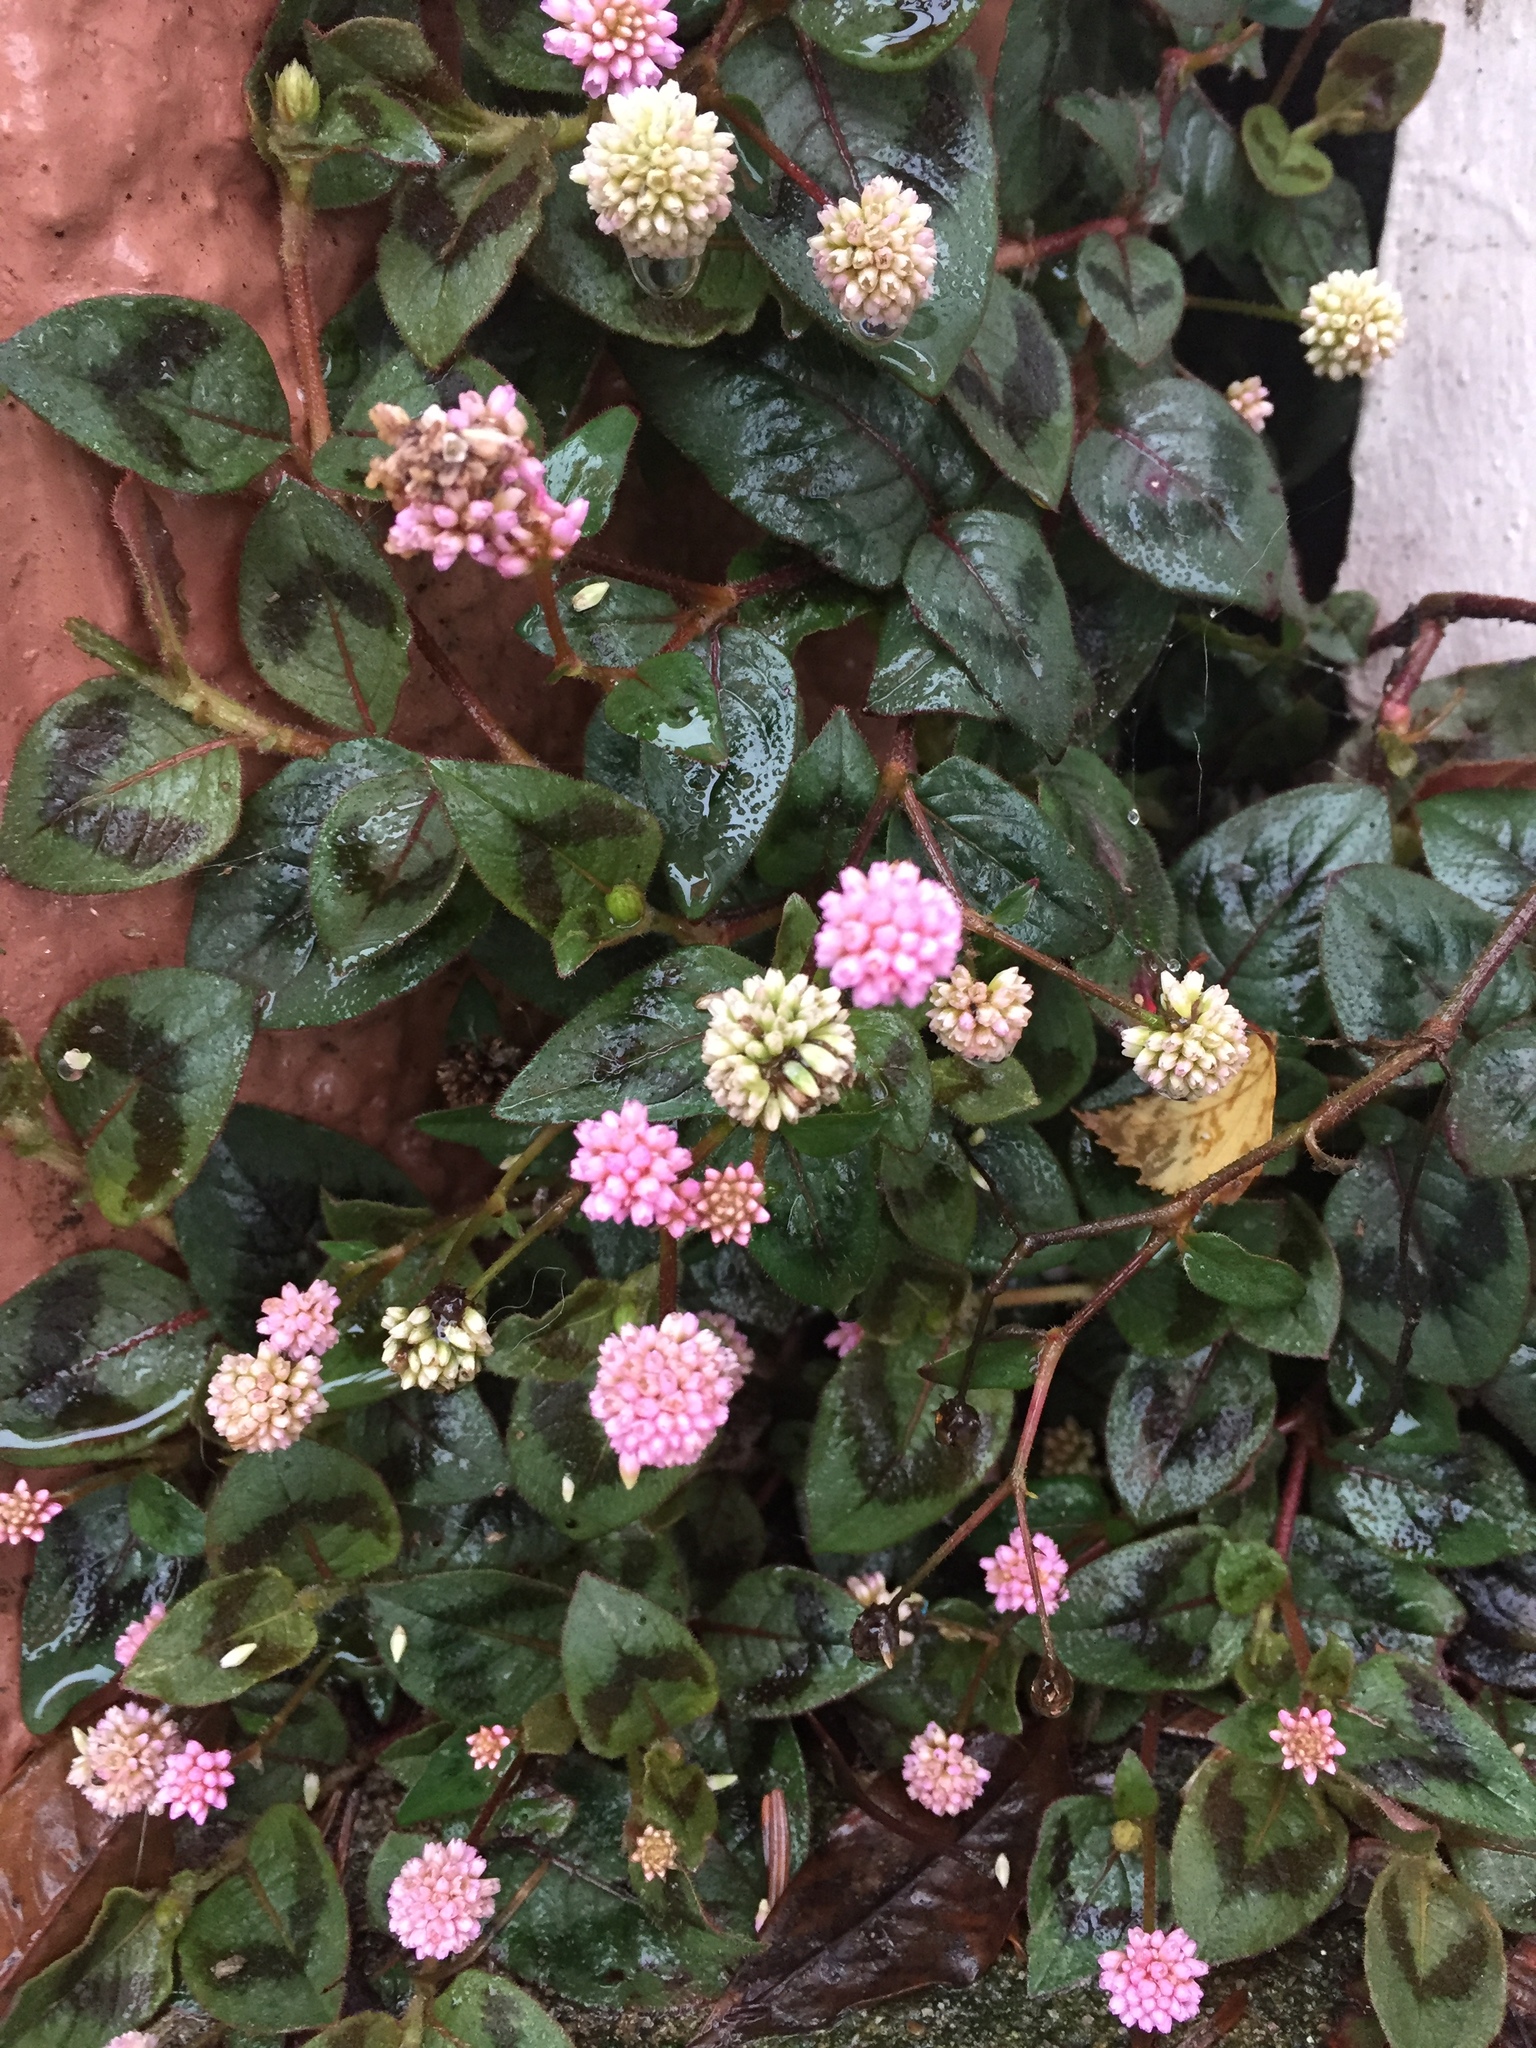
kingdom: Plantae
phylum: Tracheophyta
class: Magnoliopsida
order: Caryophyllales
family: Polygonaceae
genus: Persicaria
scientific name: Persicaria capitata
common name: Pinkhead smartweed
